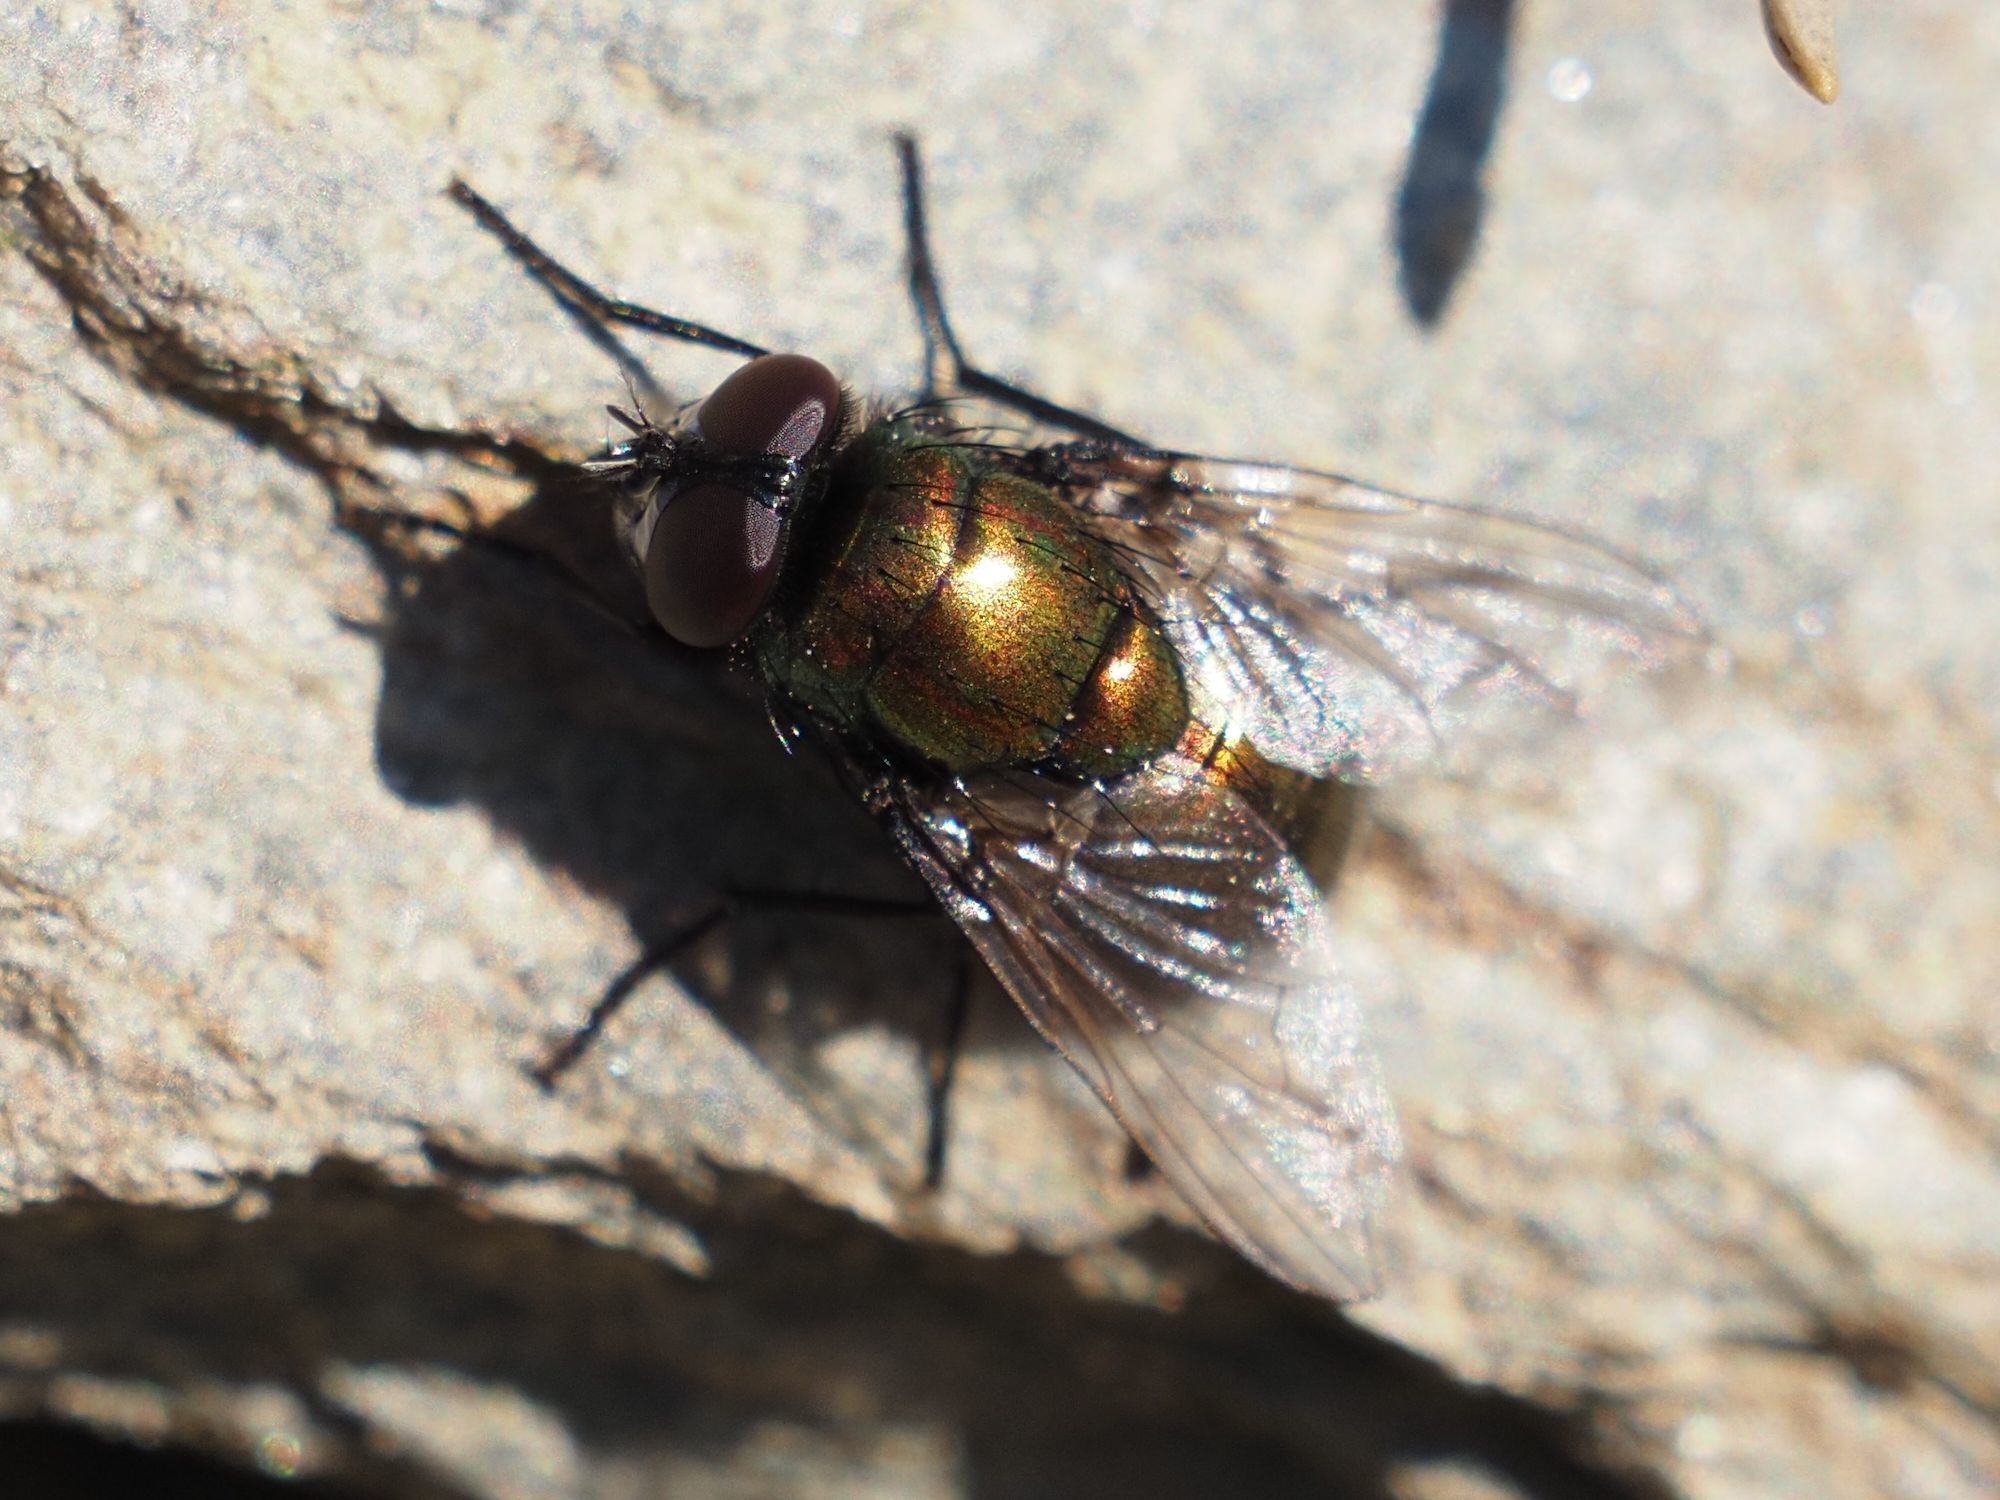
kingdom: Animalia
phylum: Arthropoda
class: Insecta
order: Diptera
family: Muscidae
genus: Neomyia
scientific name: Neomyia cornicina
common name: House fly
